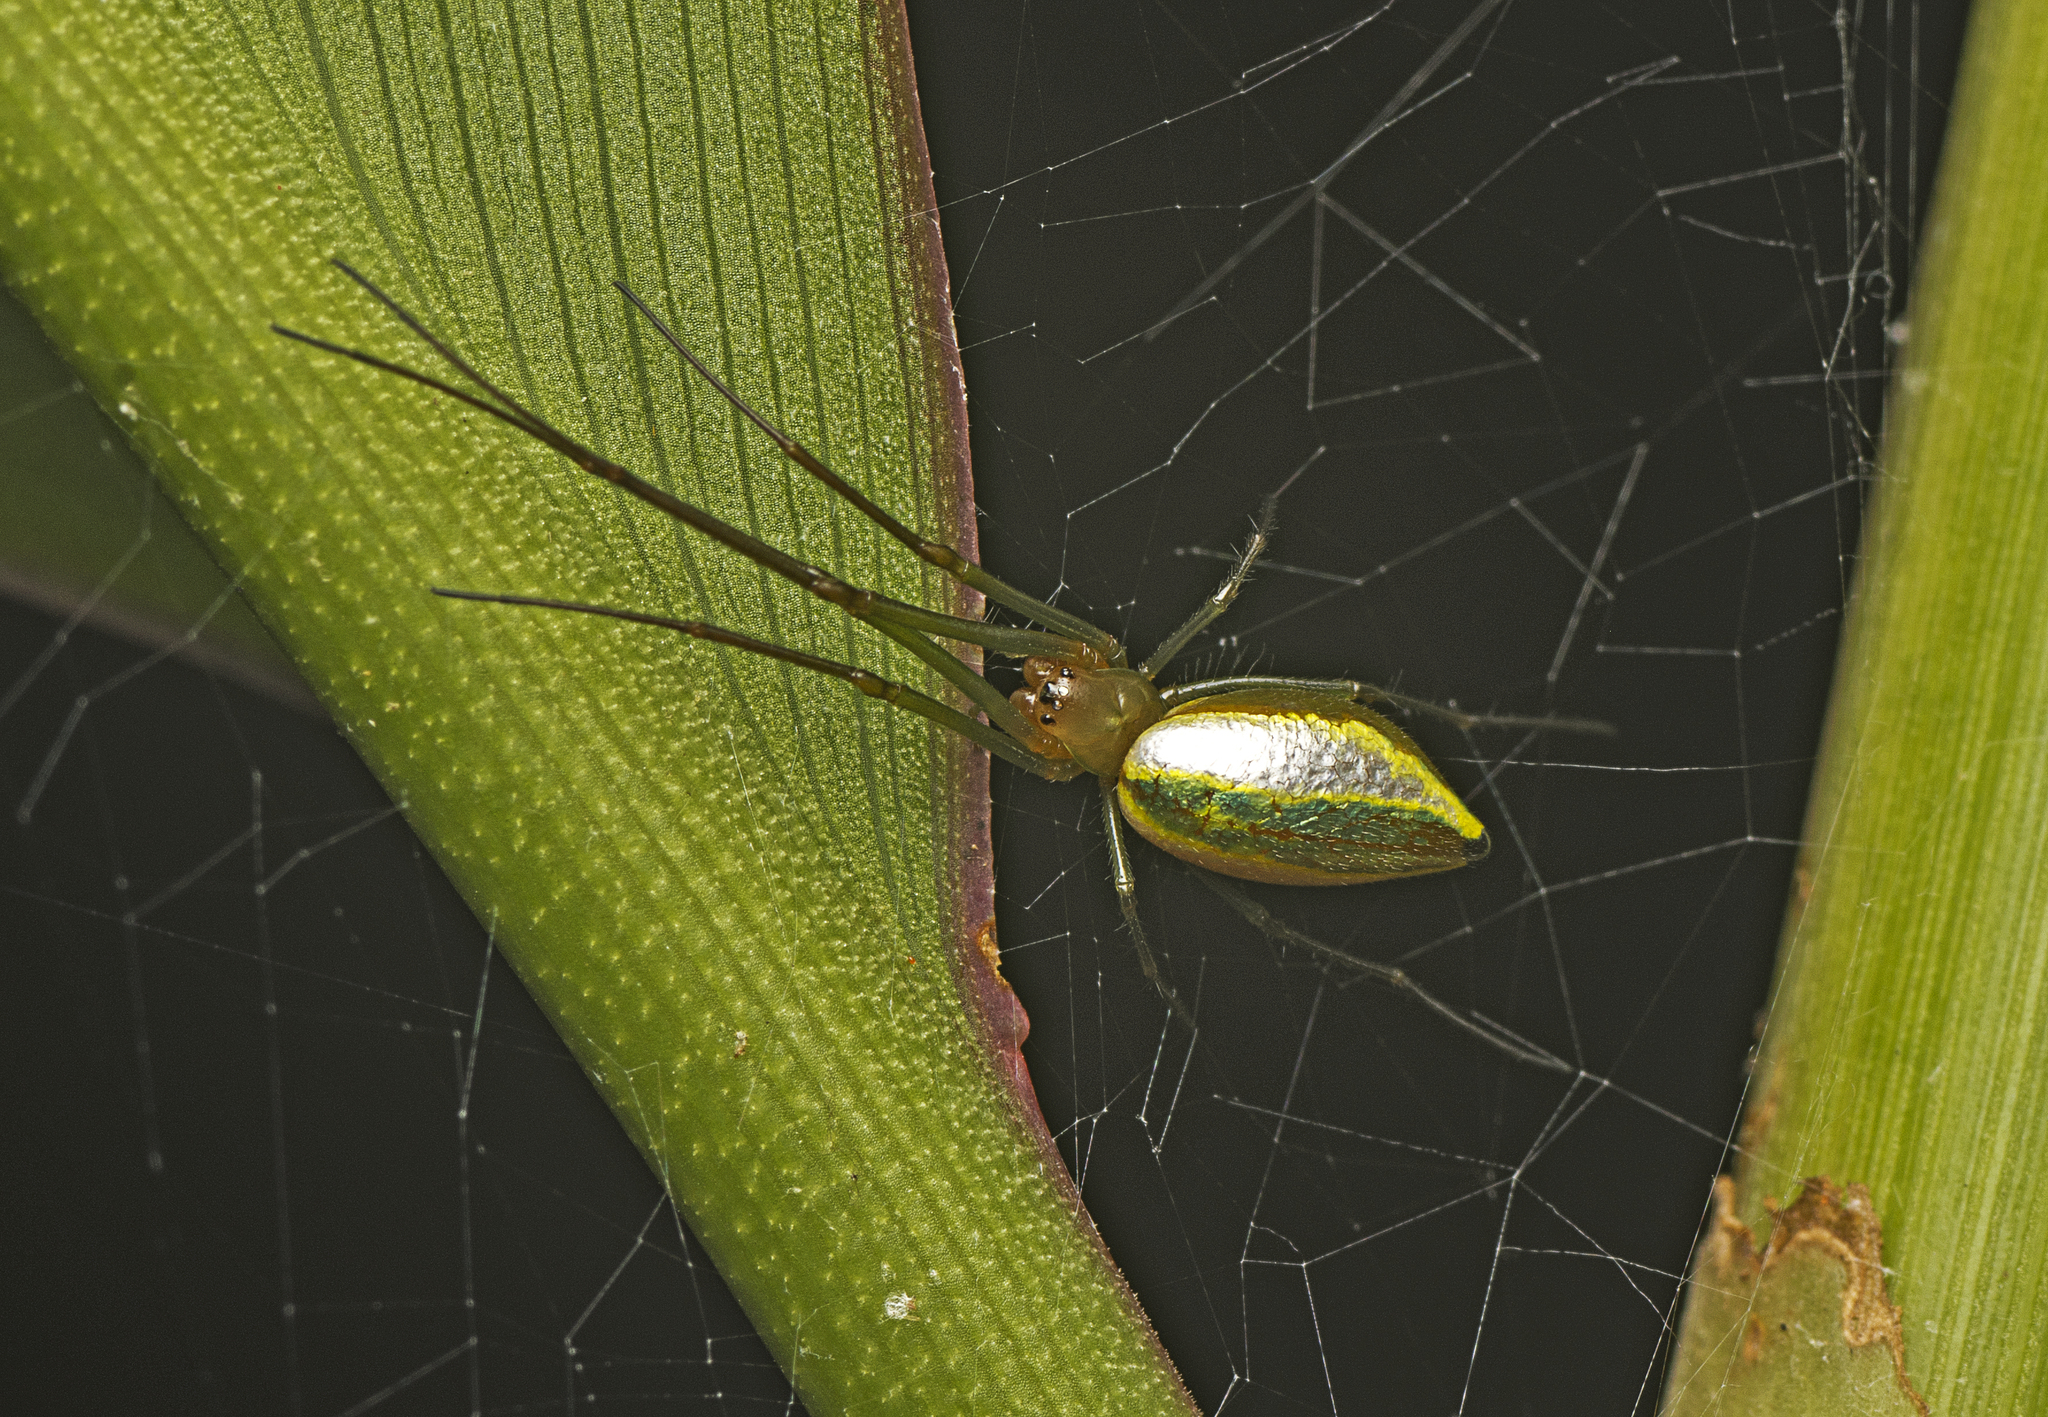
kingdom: Animalia
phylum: Arthropoda
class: Arachnida
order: Araneae
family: Tetragnathidae
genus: Mesida
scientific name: Mesida argentiopunctata
